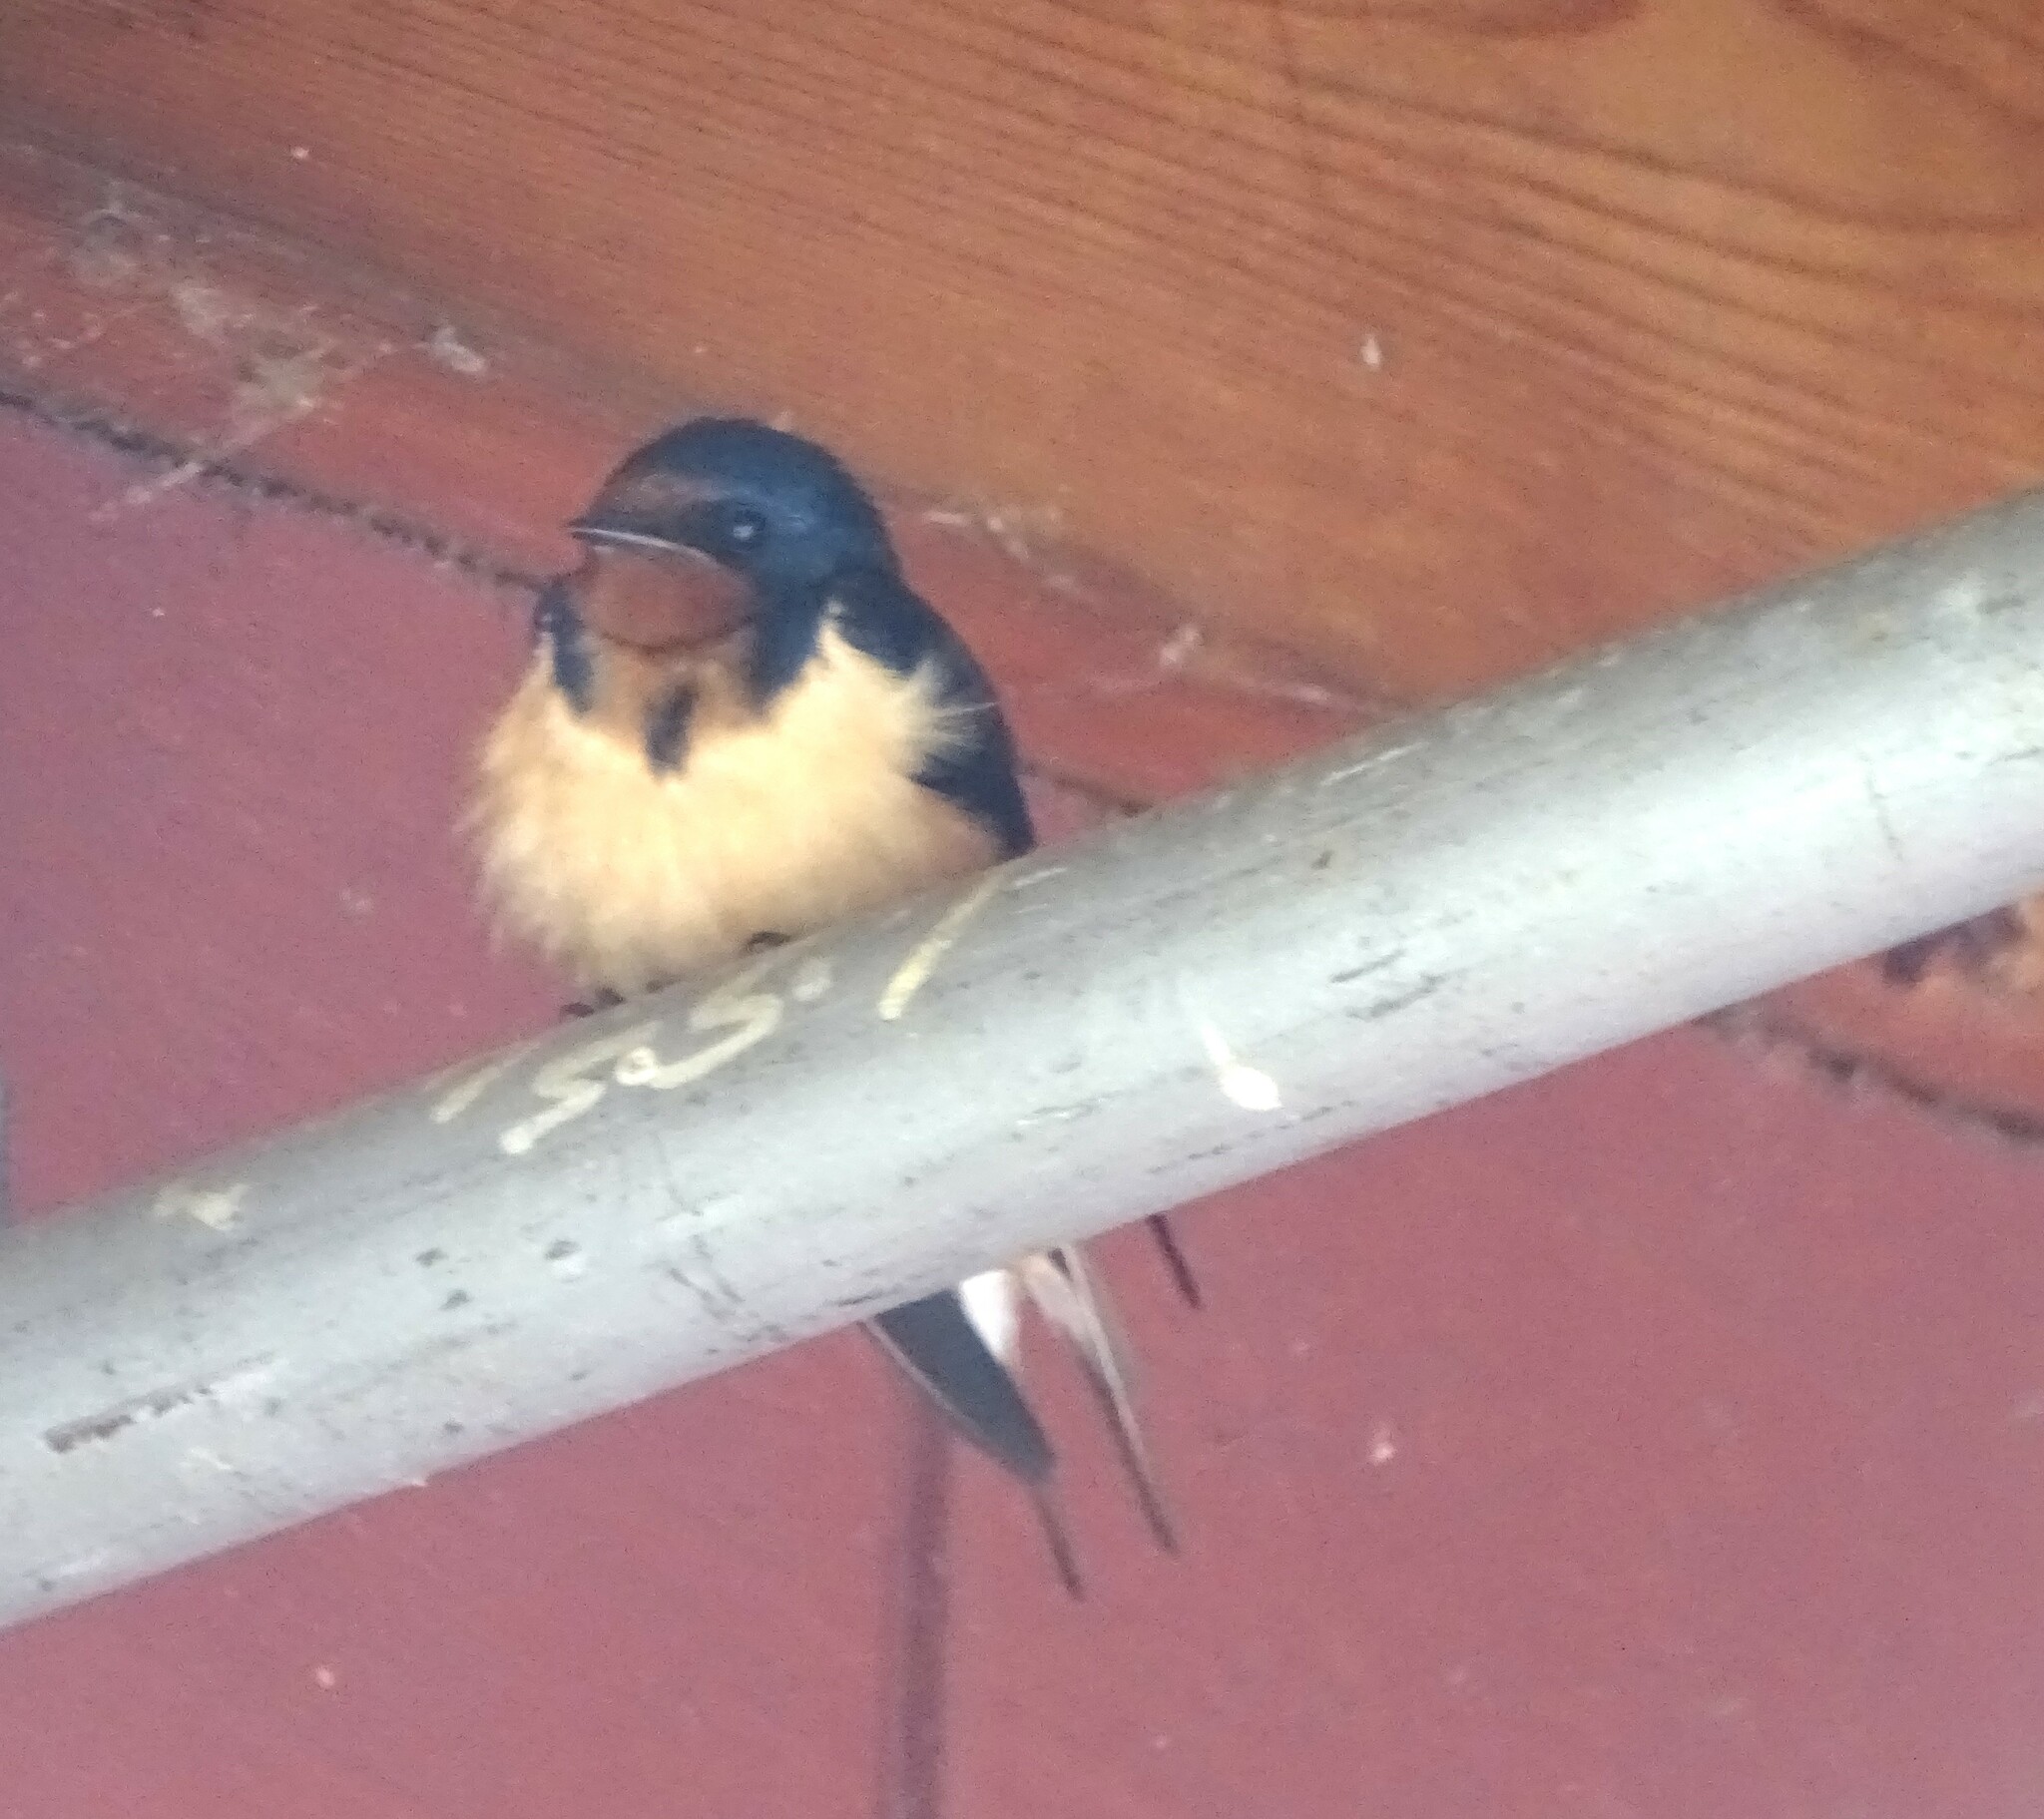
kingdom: Animalia
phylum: Chordata
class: Aves
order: Passeriformes
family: Hirundinidae
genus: Hirundo
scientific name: Hirundo rustica
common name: Barn swallow
